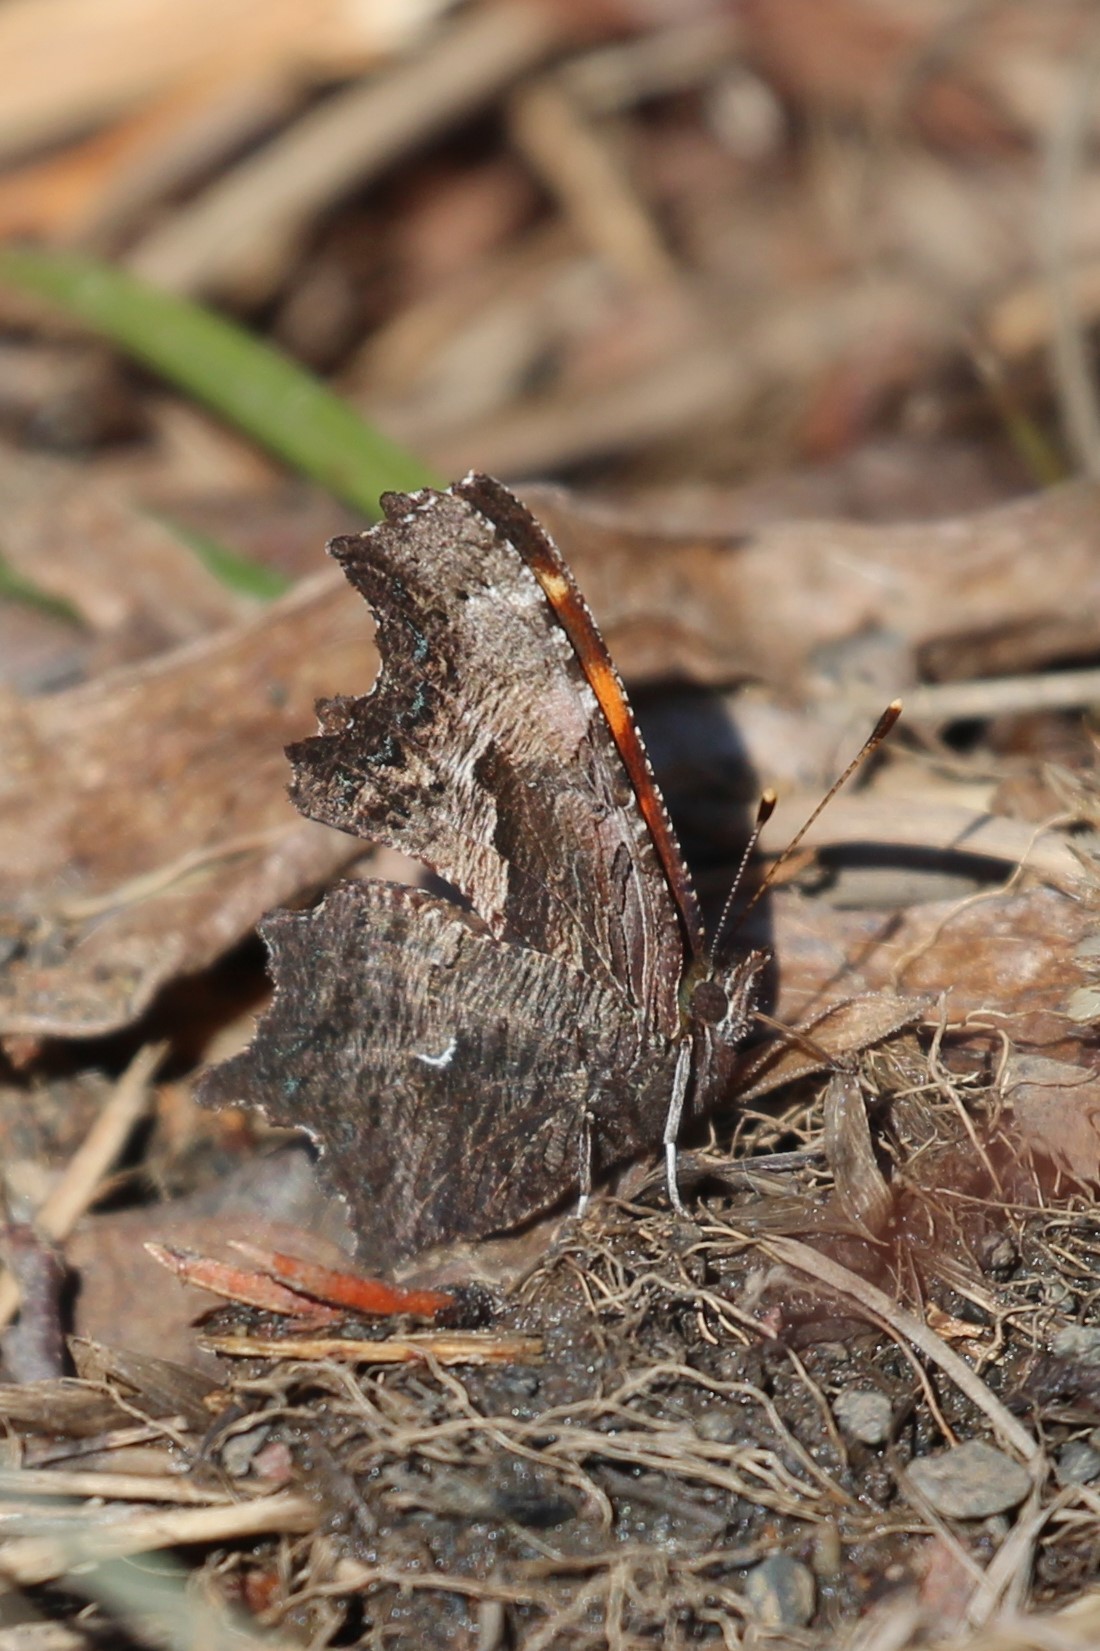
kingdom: Animalia
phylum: Arthropoda
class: Insecta
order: Lepidoptera
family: Nymphalidae
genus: Polygonia
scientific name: Polygonia progne
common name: Gray comma
